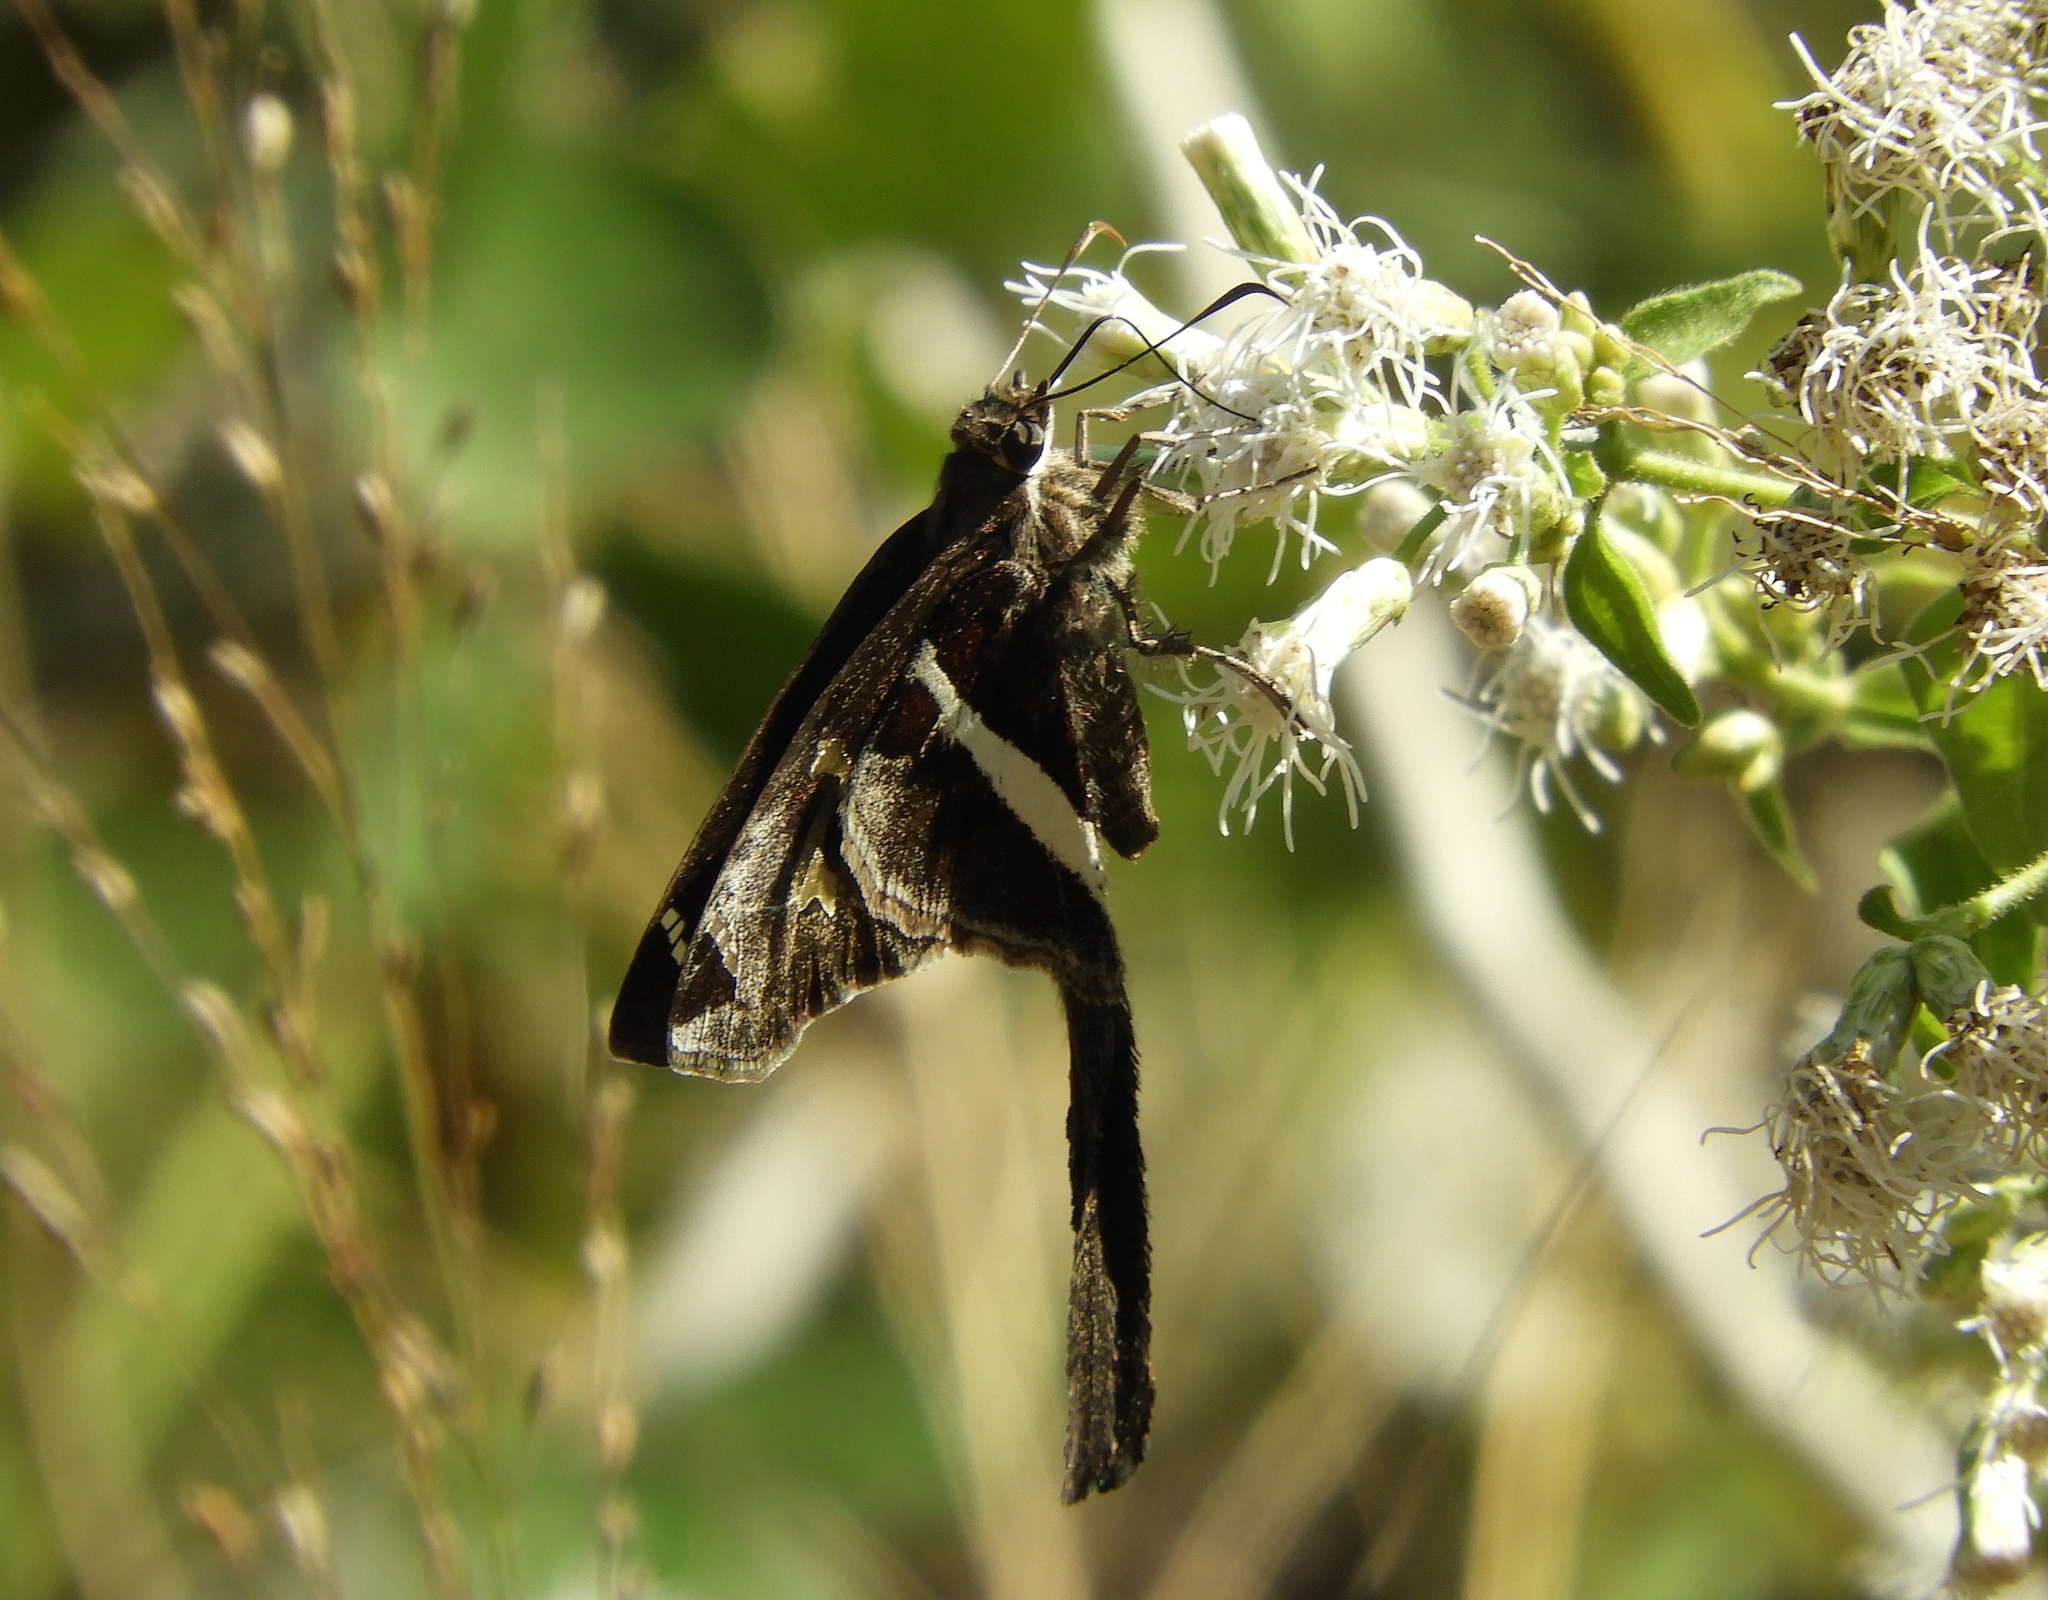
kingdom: Animalia
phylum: Arthropoda
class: Insecta
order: Lepidoptera
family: Hesperiidae
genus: Chioides
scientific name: Chioides catillus
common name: Silverbanded skipper
